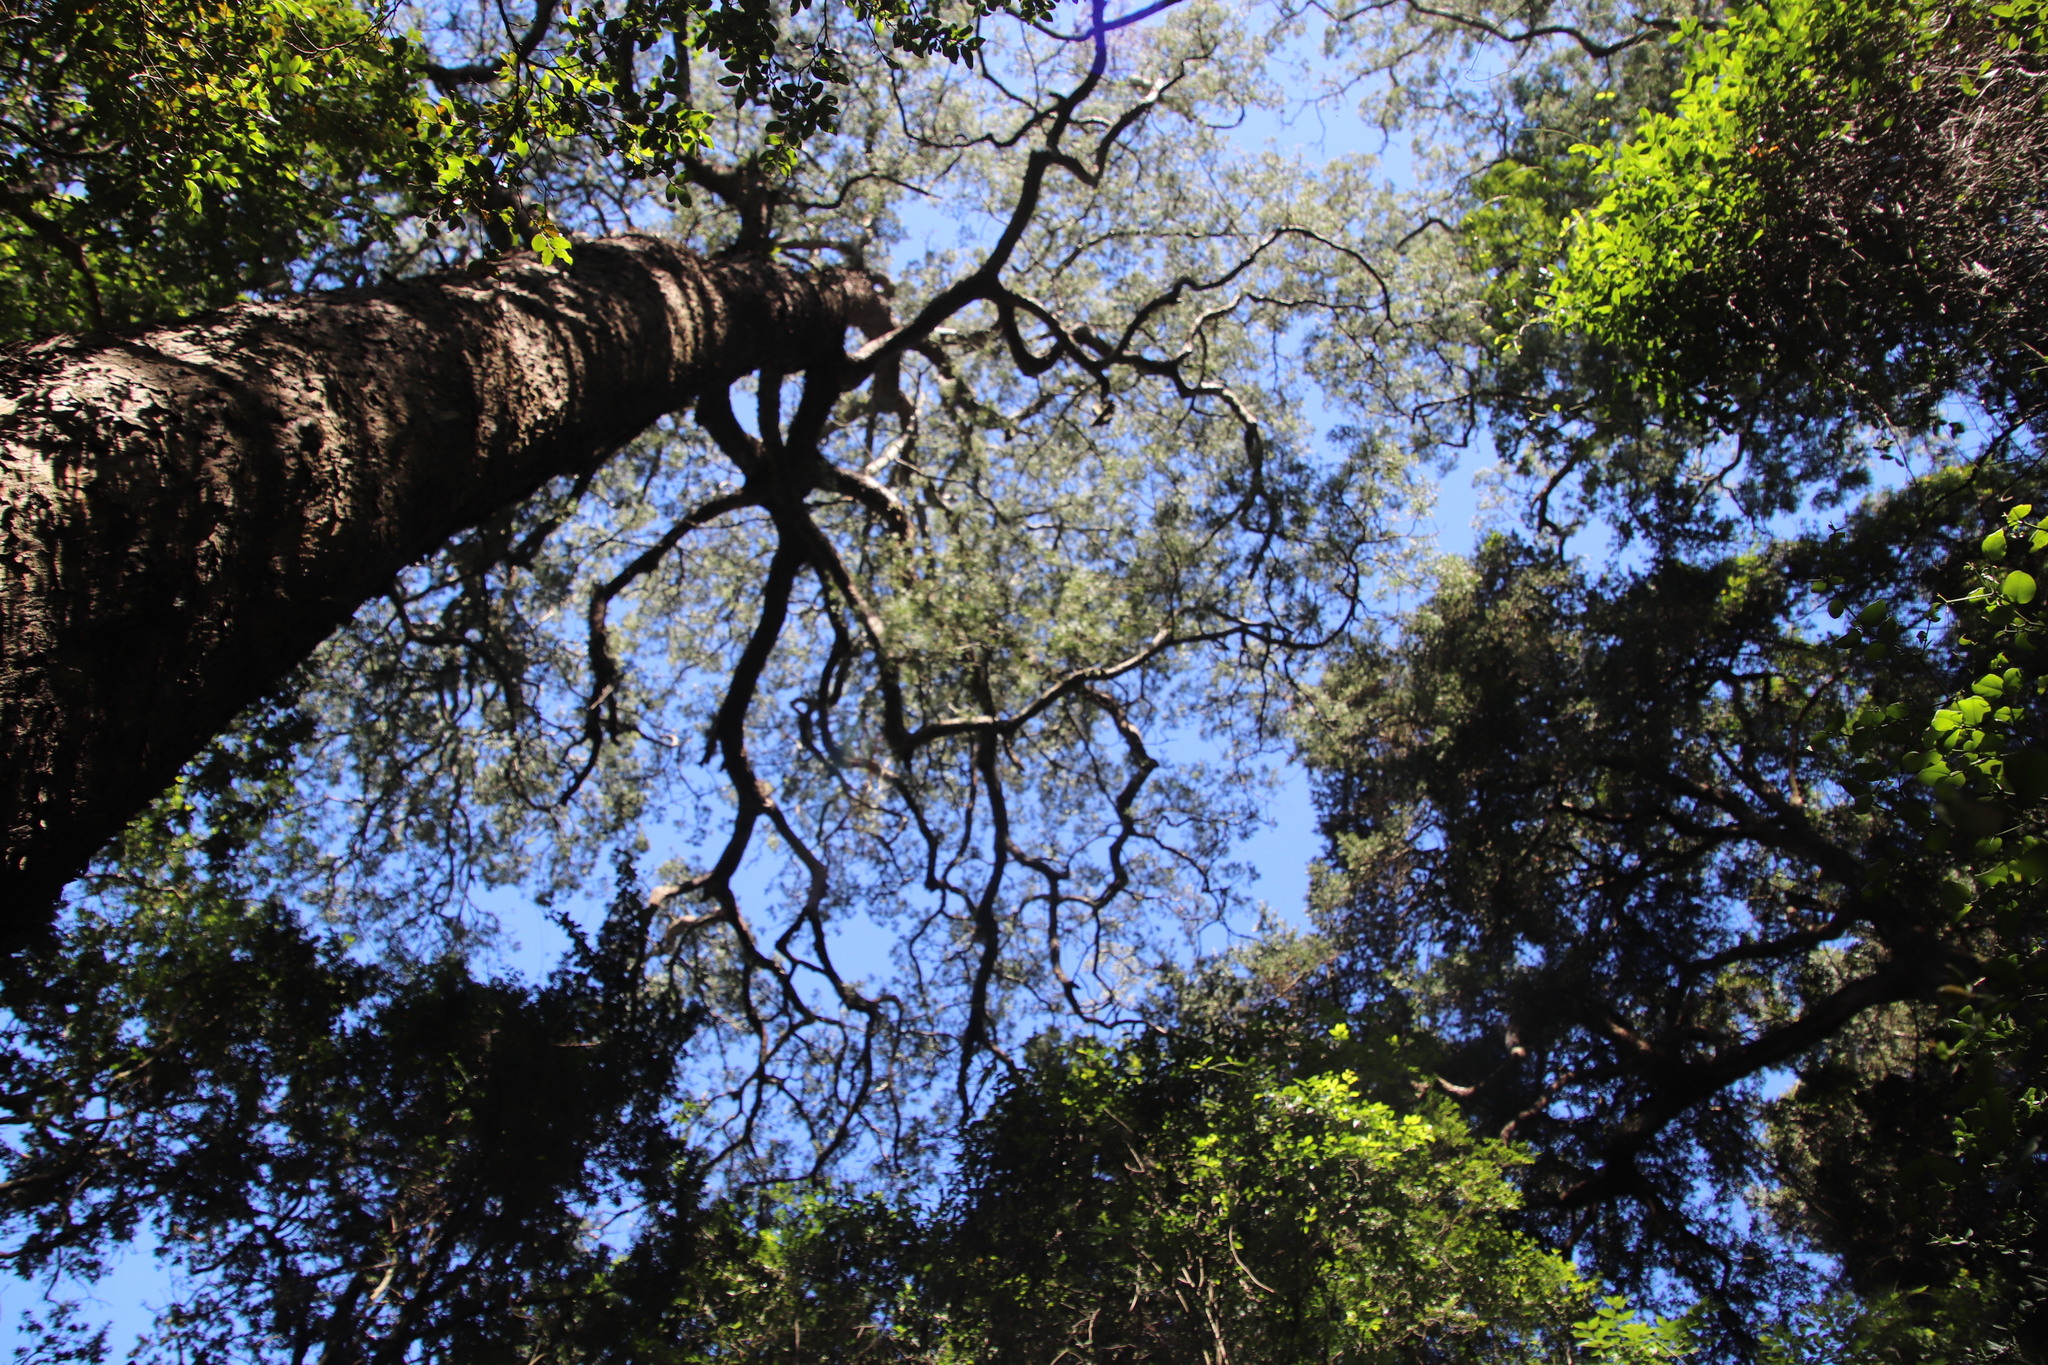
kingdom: Plantae
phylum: Tracheophyta
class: Pinopsida
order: Pinales
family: Podocarpaceae
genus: Afrocarpus
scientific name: Afrocarpus falcatus
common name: Bastard yellowwood
